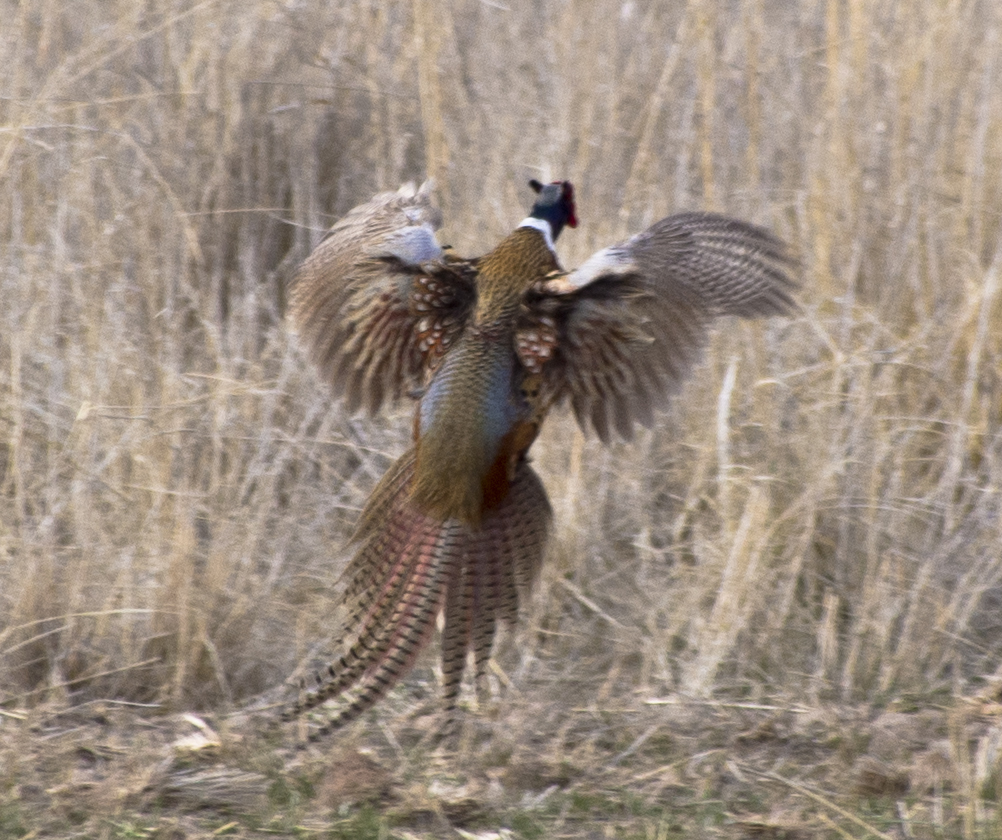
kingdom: Animalia
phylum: Chordata
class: Aves
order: Galliformes
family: Phasianidae
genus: Phasianus
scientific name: Phasianus colchicus
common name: Common pheasant
